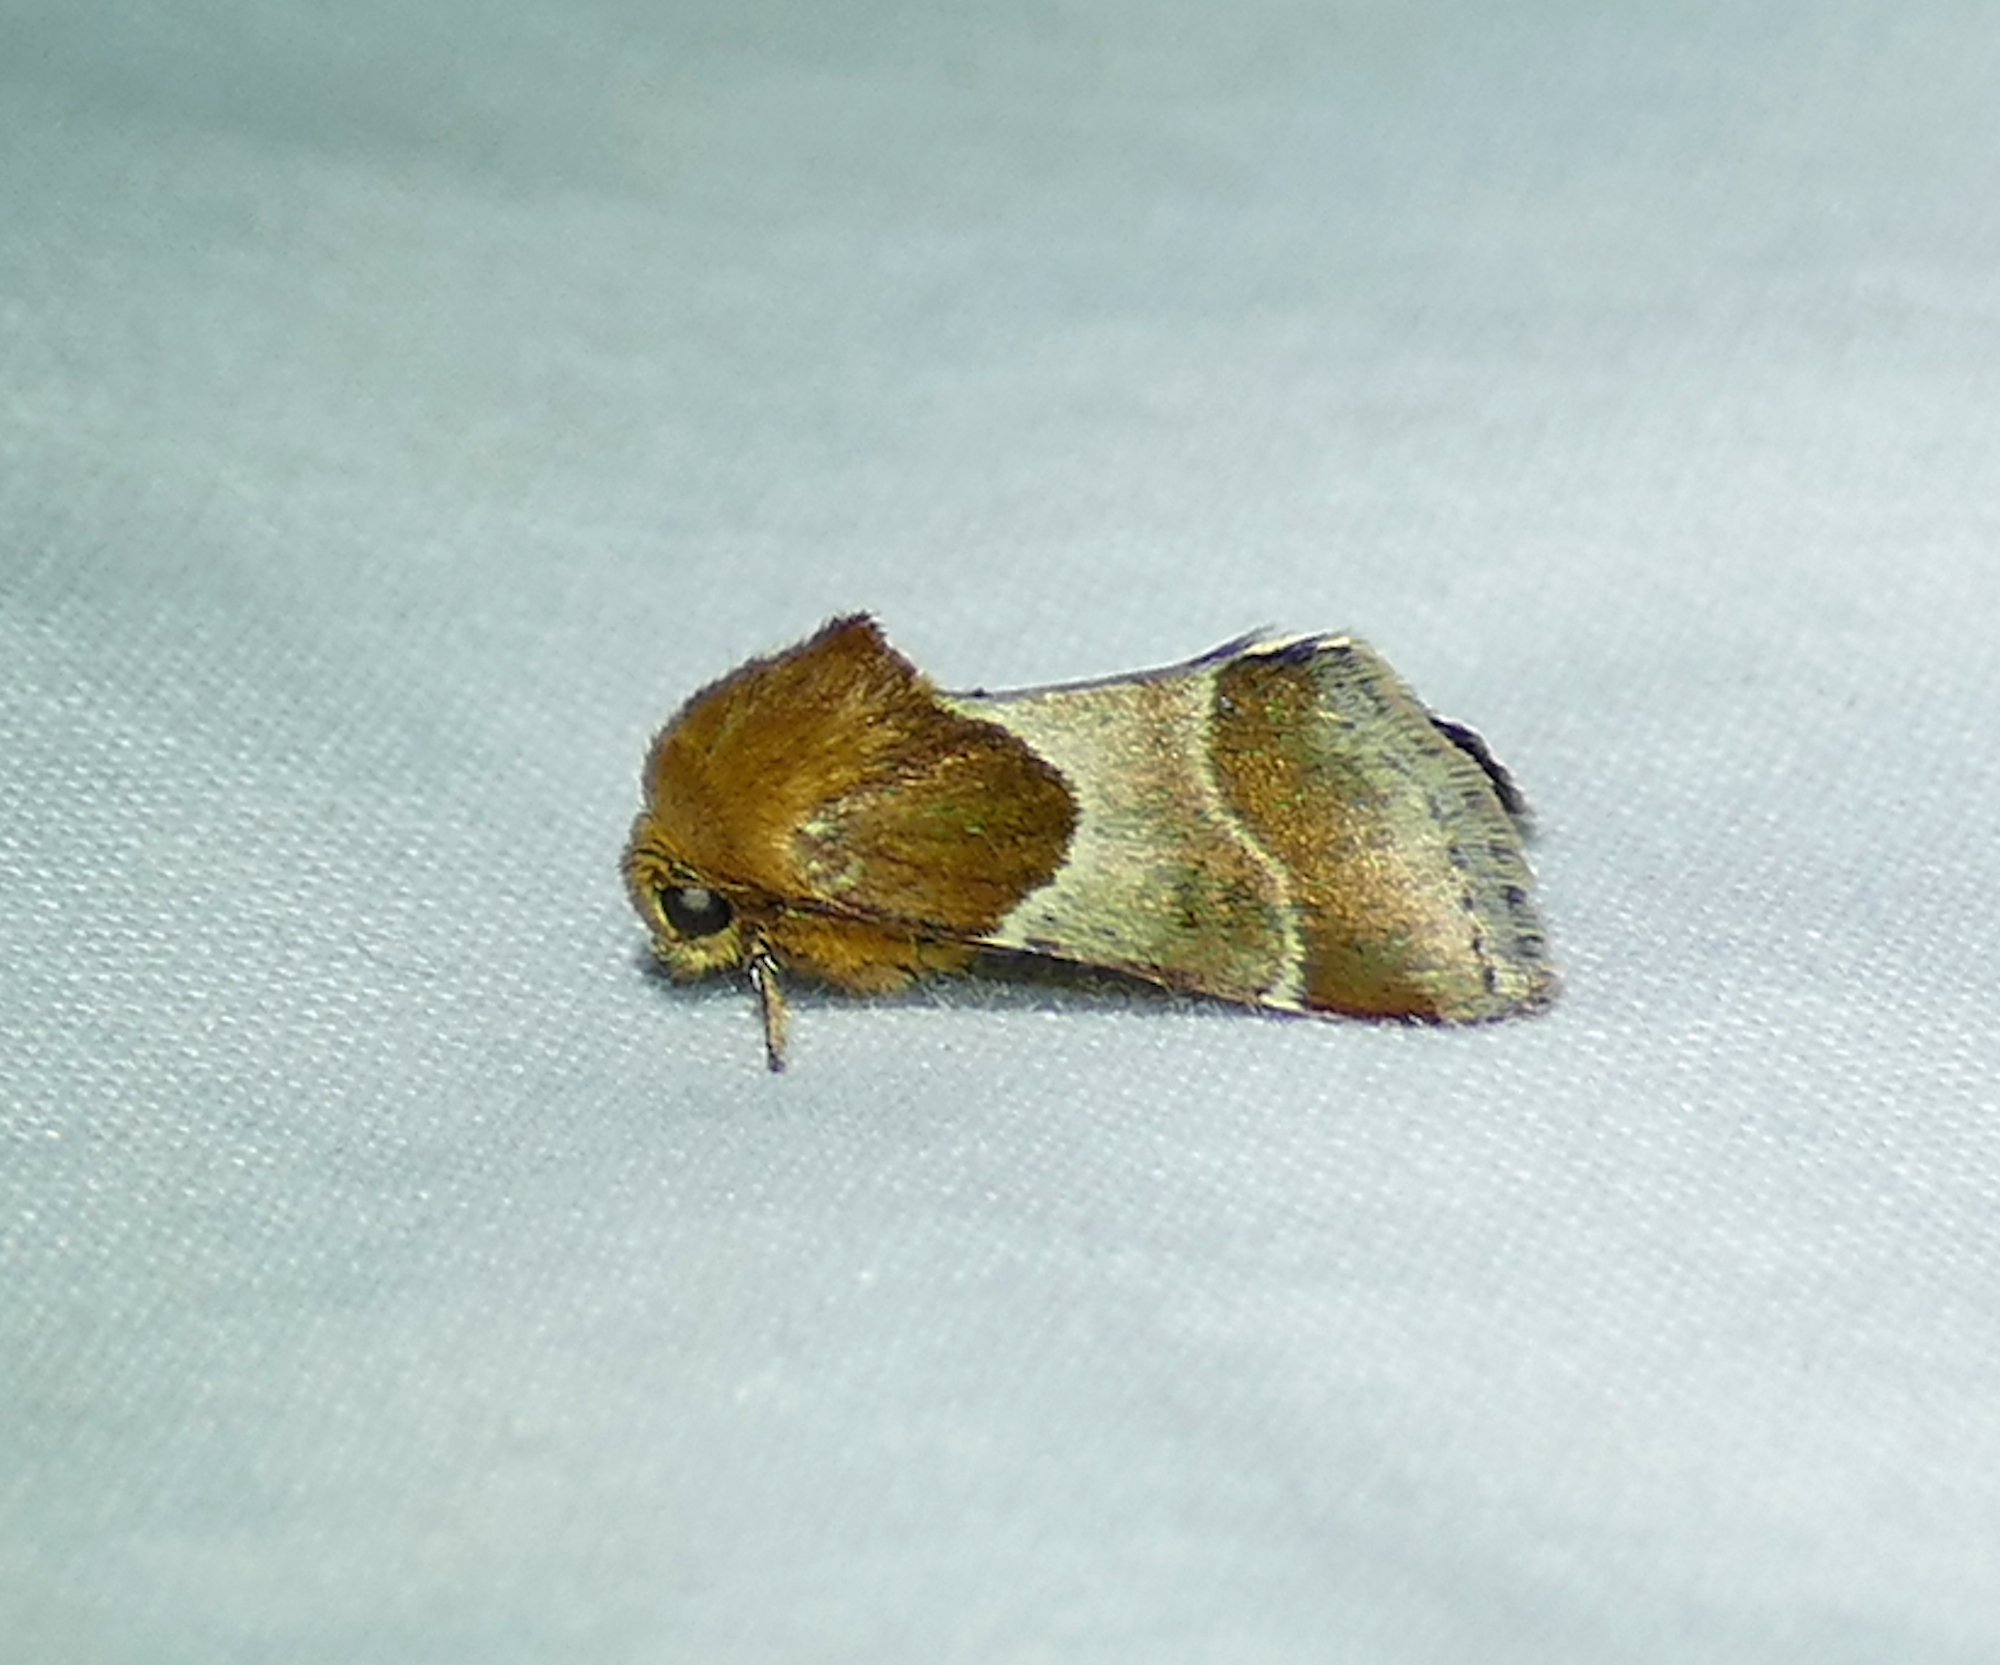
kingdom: Animalia
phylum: Arthropoda
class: Insecta
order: Lepidoptera
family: Noctuidae
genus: Schinia
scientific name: Schinia arcigera
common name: Arcigera flower moth
